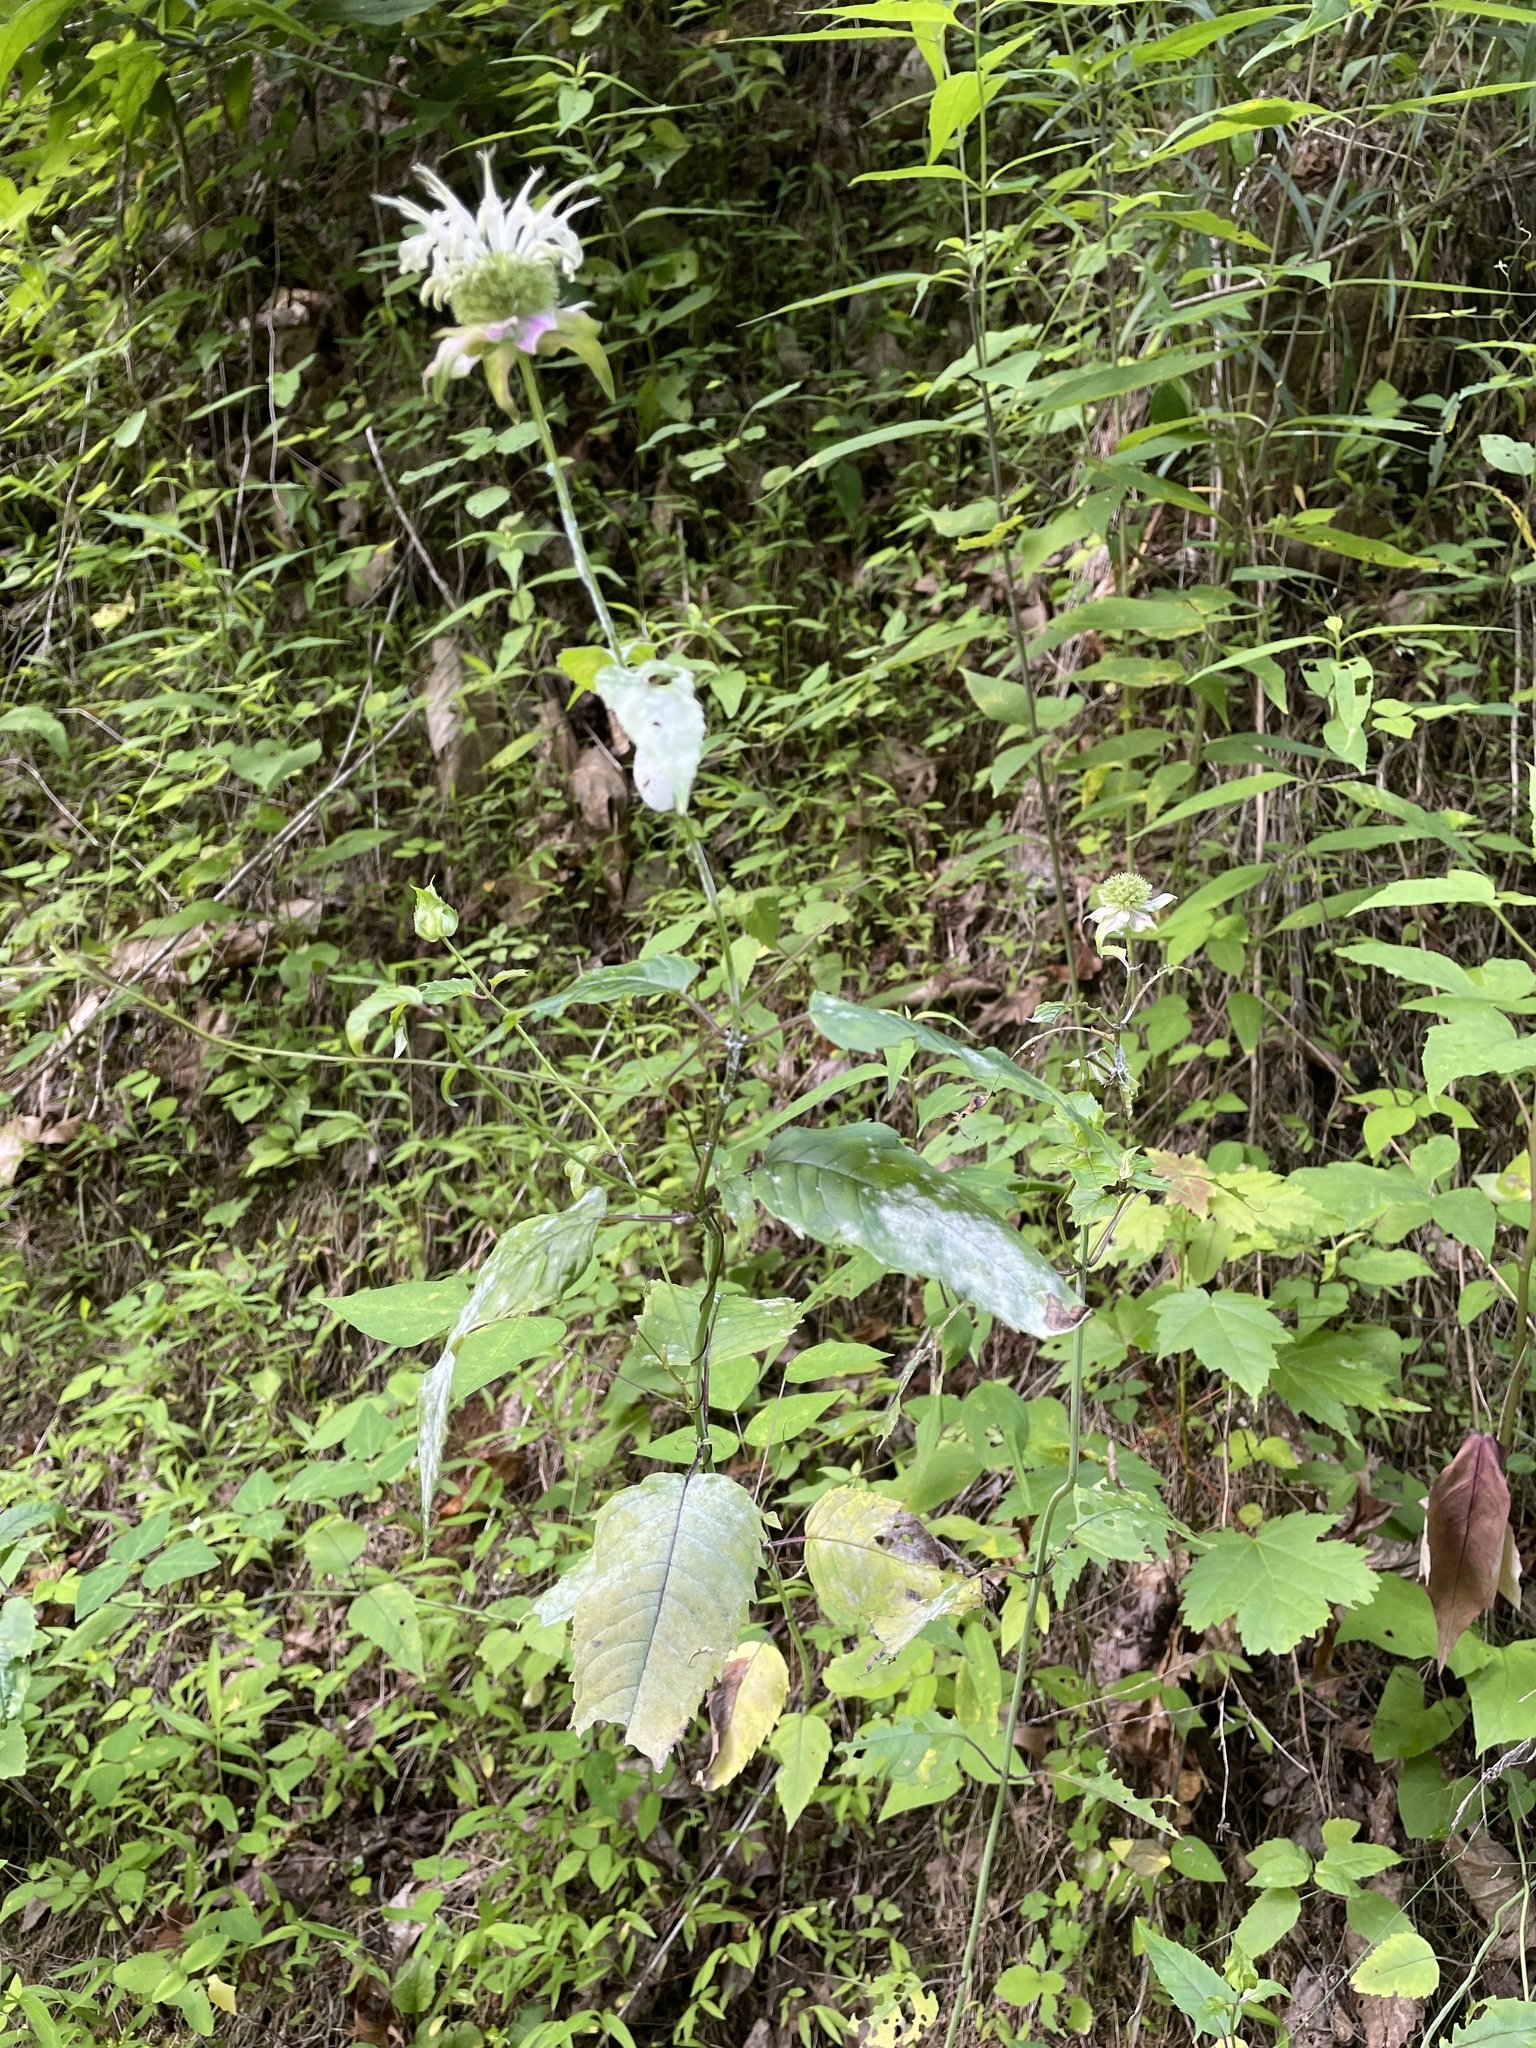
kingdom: Plantae
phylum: Tracheophyta
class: Magnoliopsida
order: Lamiales
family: Lamiaceae
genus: Monarda
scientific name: Monarda clinopodia
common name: Basil beebalm
